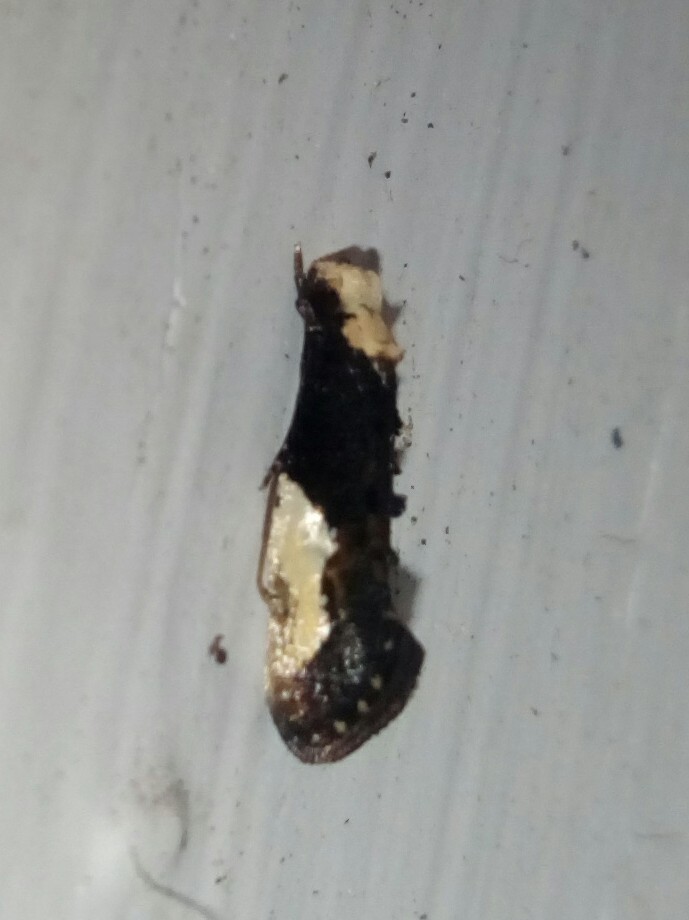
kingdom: Animalia
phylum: Arthropoda
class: Insecta
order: Lepidoptera
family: Tineidae
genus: Monopis
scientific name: Monopis longella
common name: Pavlovski's monopis moth
